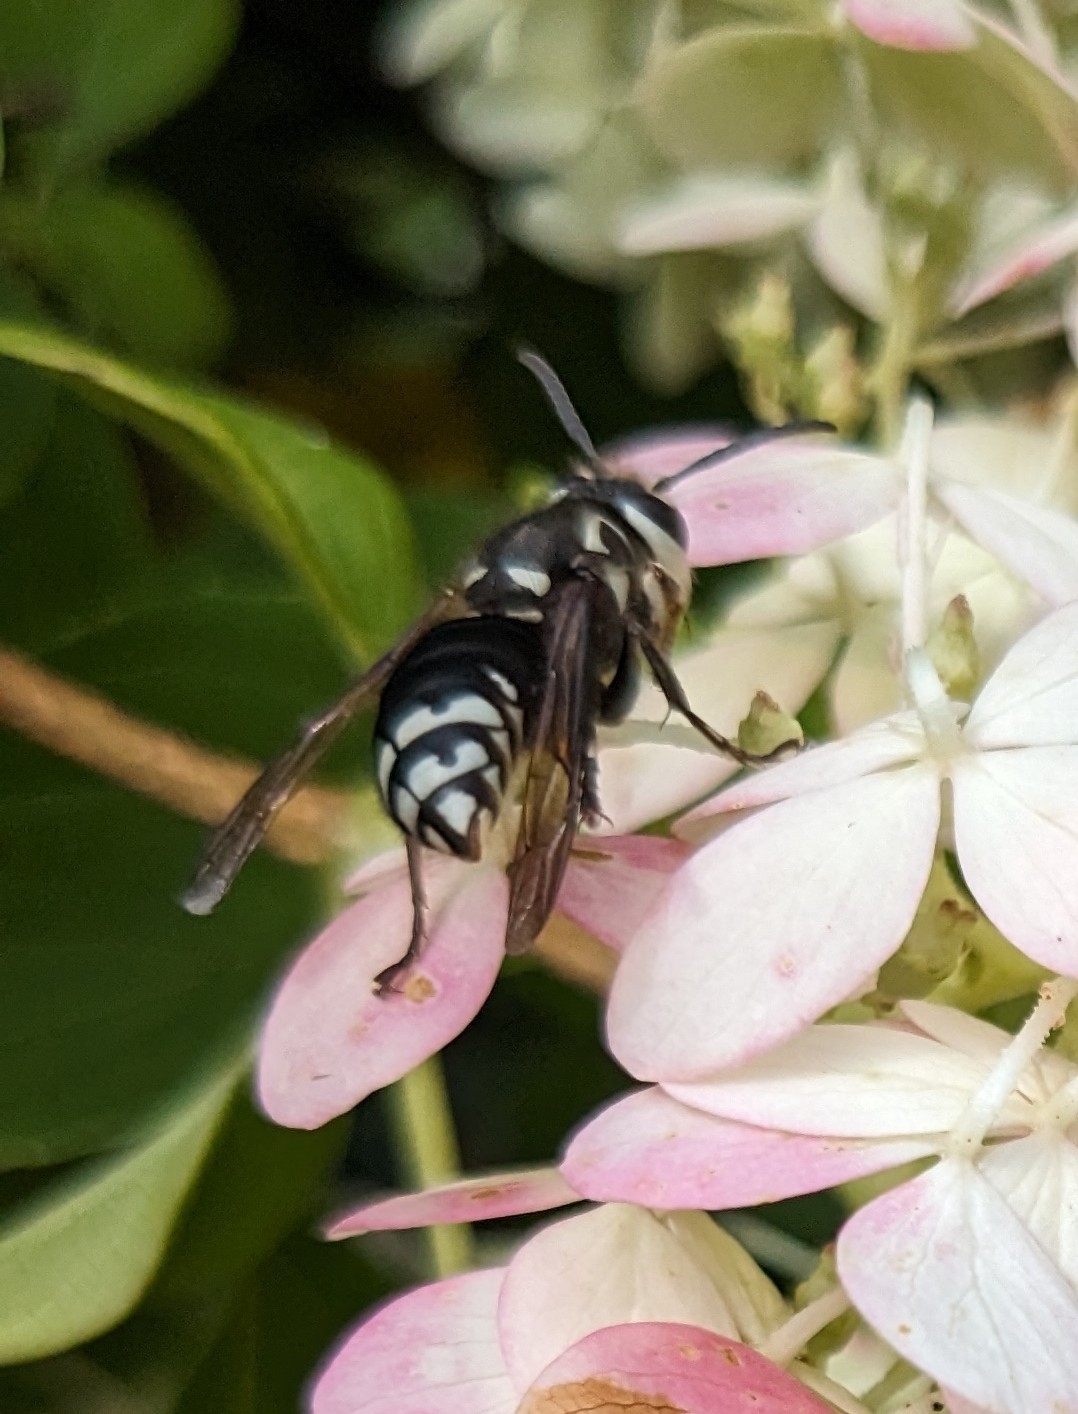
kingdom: Animalia
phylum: Arthropoda
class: Insecta
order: Hymenoptera
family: Vespidae
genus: Dolichovespula
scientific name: Dolichovespula maculata
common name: Bald-faced hornet
